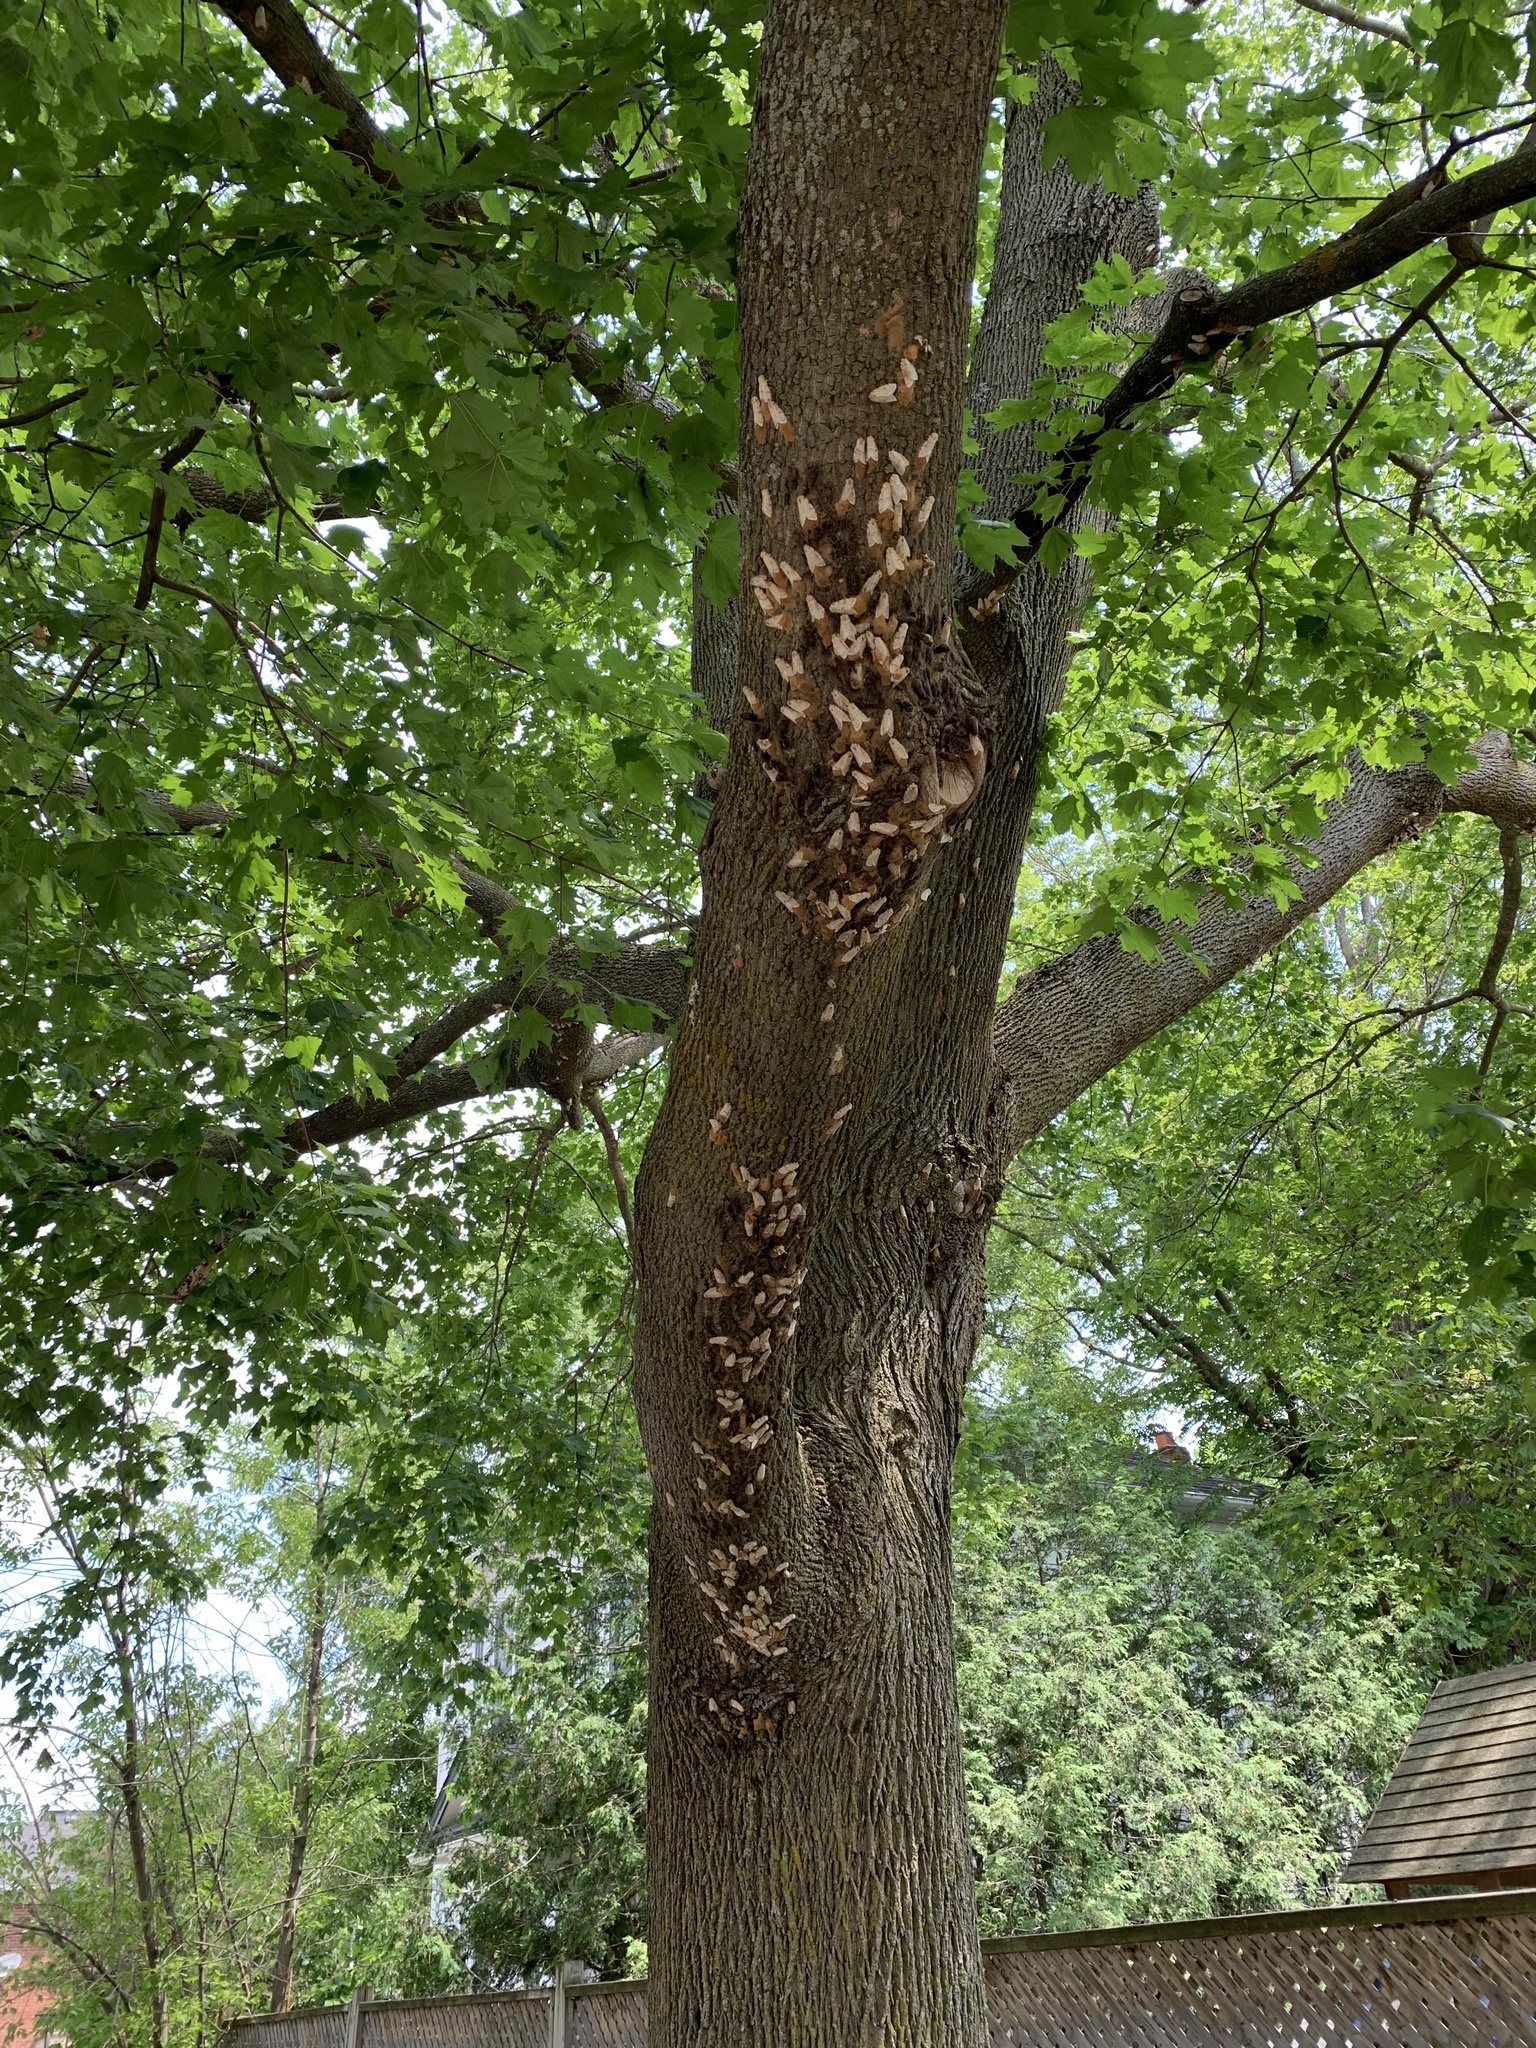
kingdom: Animalia
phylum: Arthropoda
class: Insecta
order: Lepidoptera
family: Erebidae
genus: Lymantria
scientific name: Lymantria dispar
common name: Gypsy moth
